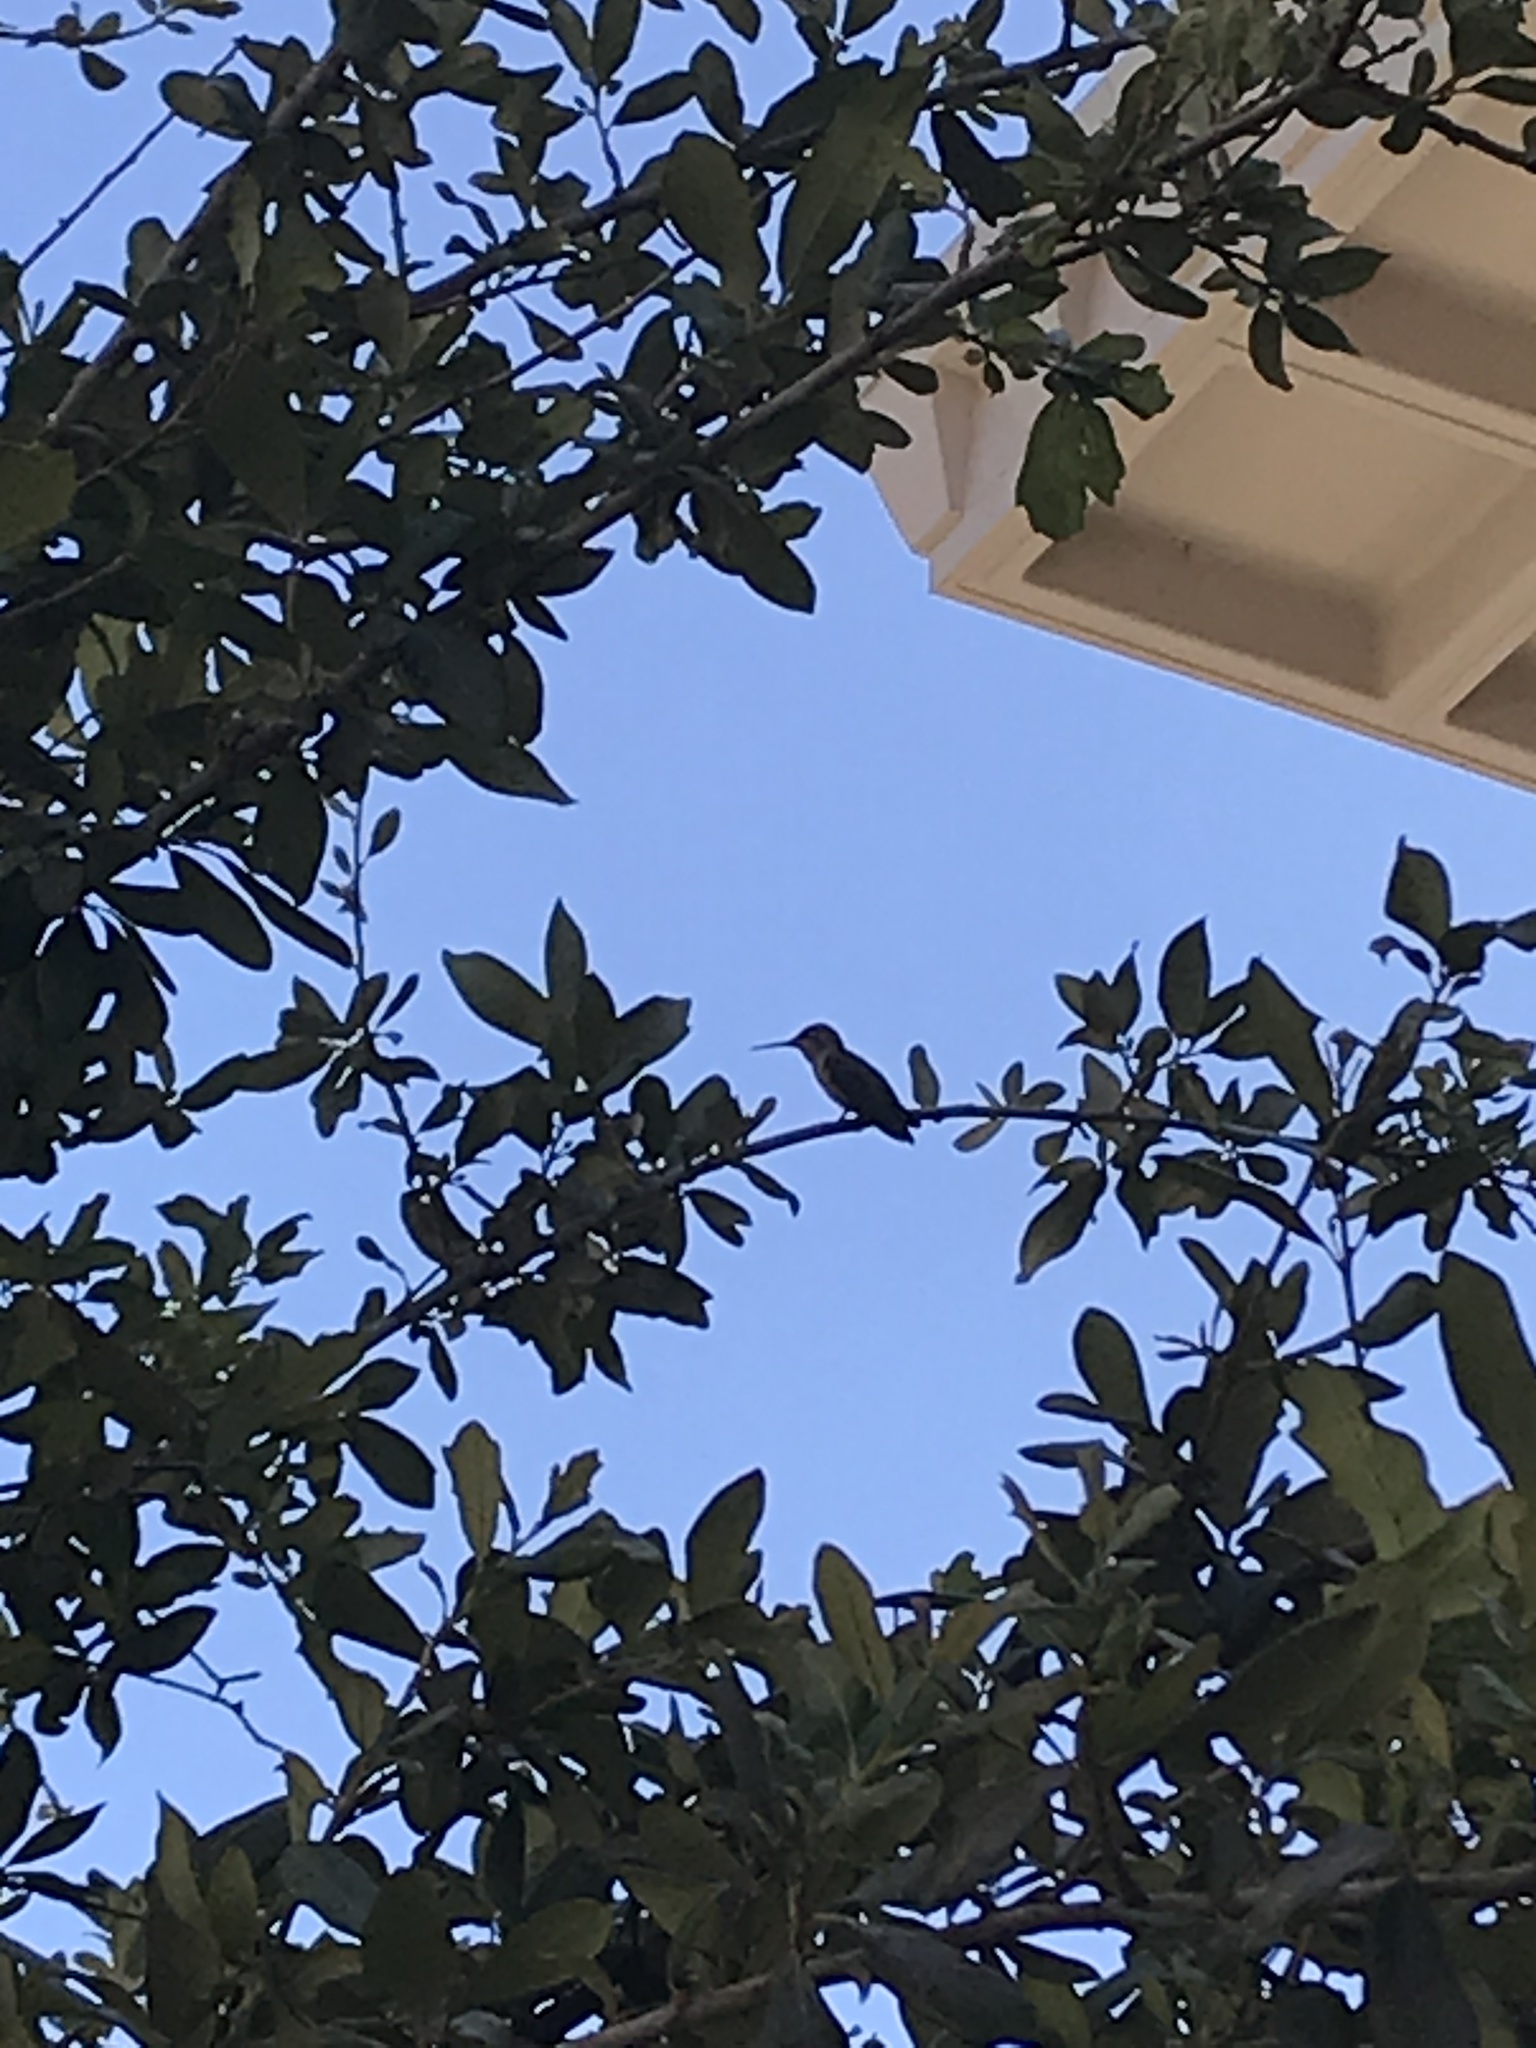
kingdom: Animalia
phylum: Chordata
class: Aves
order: Apodiformes
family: Trochilidae
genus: Calypte
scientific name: Calypte anna
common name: Anna's hummingbird
